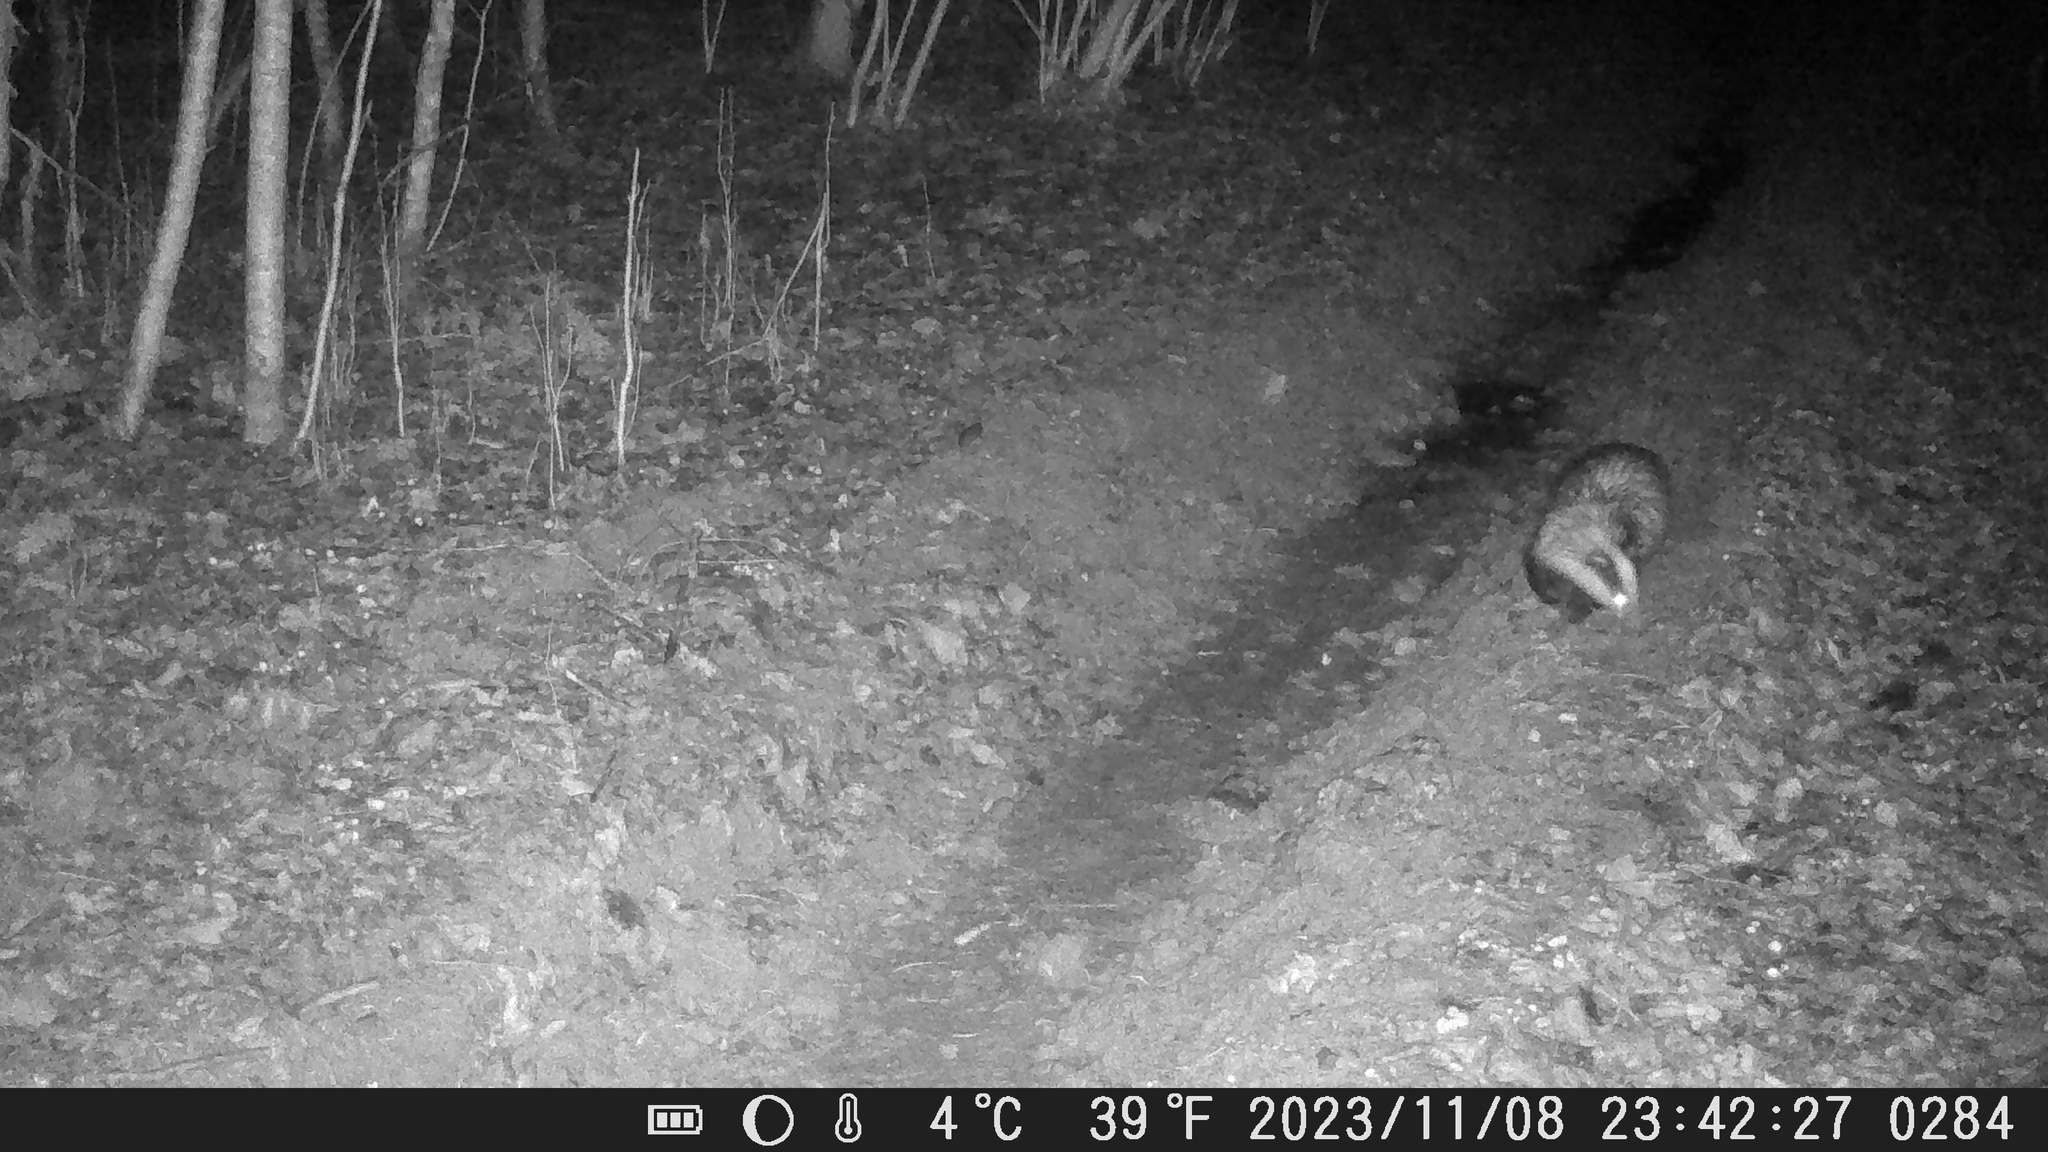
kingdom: Animalia
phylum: Chordata
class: Mammalia
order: Carnivora
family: Mustelidae
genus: Meles
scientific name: Meles meles
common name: Eurasian badger
